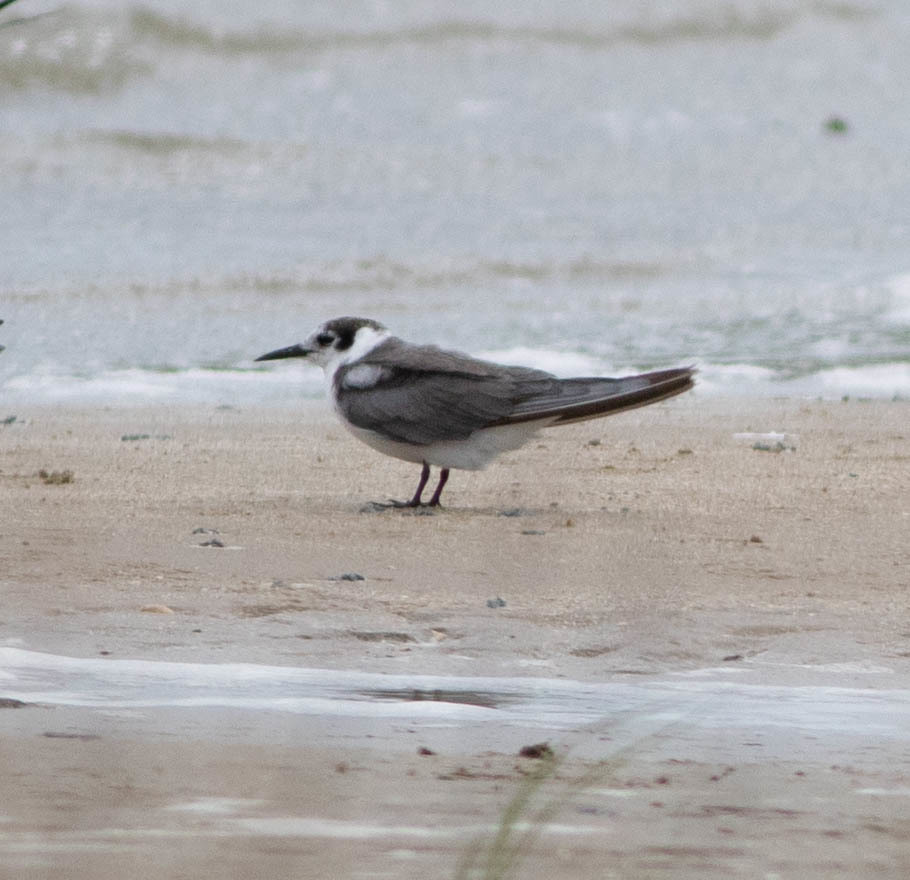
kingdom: Animalia
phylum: Chordata
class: Aves
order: Charadriiformes
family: Laridae
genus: Chlidonias
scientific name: Chlidonias niger
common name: Black tern
